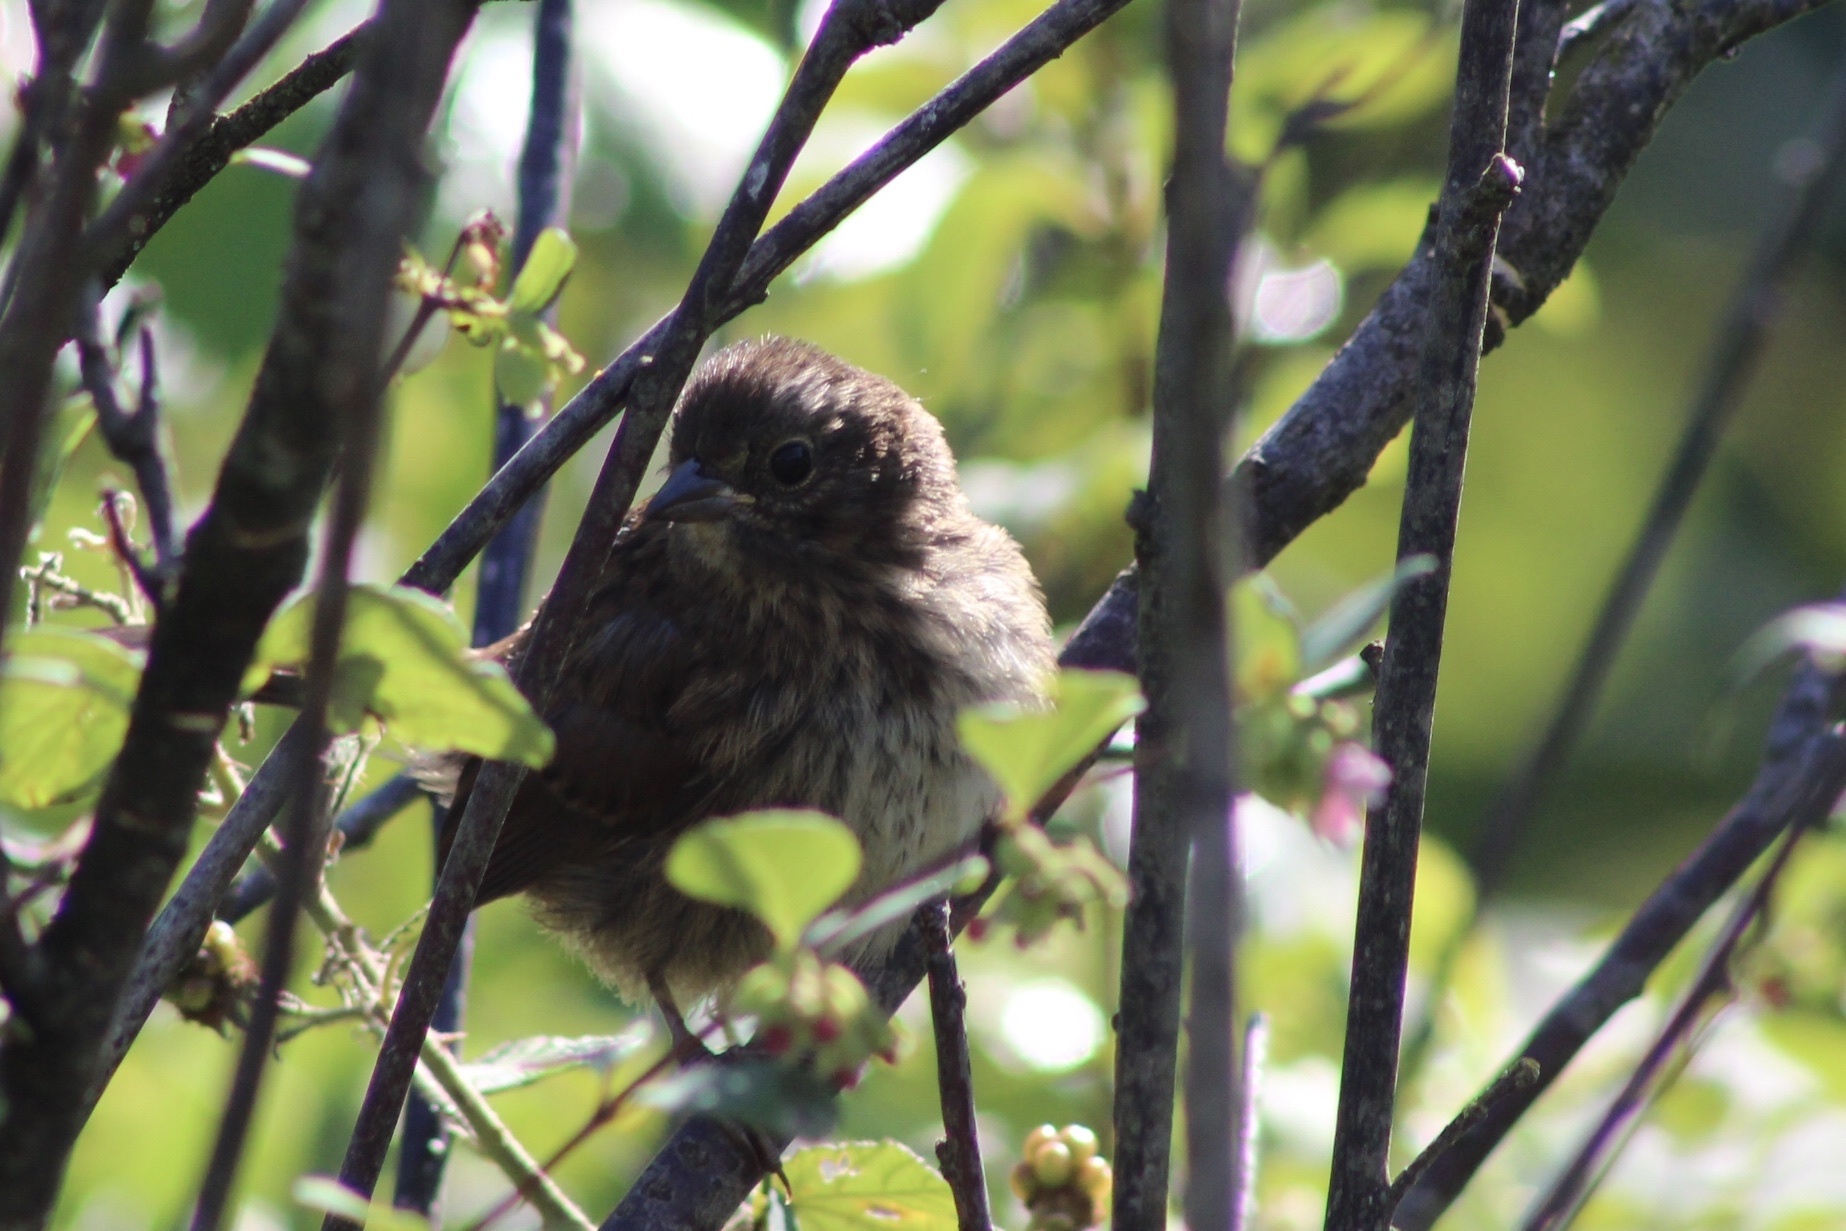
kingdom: Animalia
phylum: Chordata
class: Aves
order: Passeriformes
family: Passerellidae
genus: Melospiza
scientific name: Melospiza melodia
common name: Song sparrow
